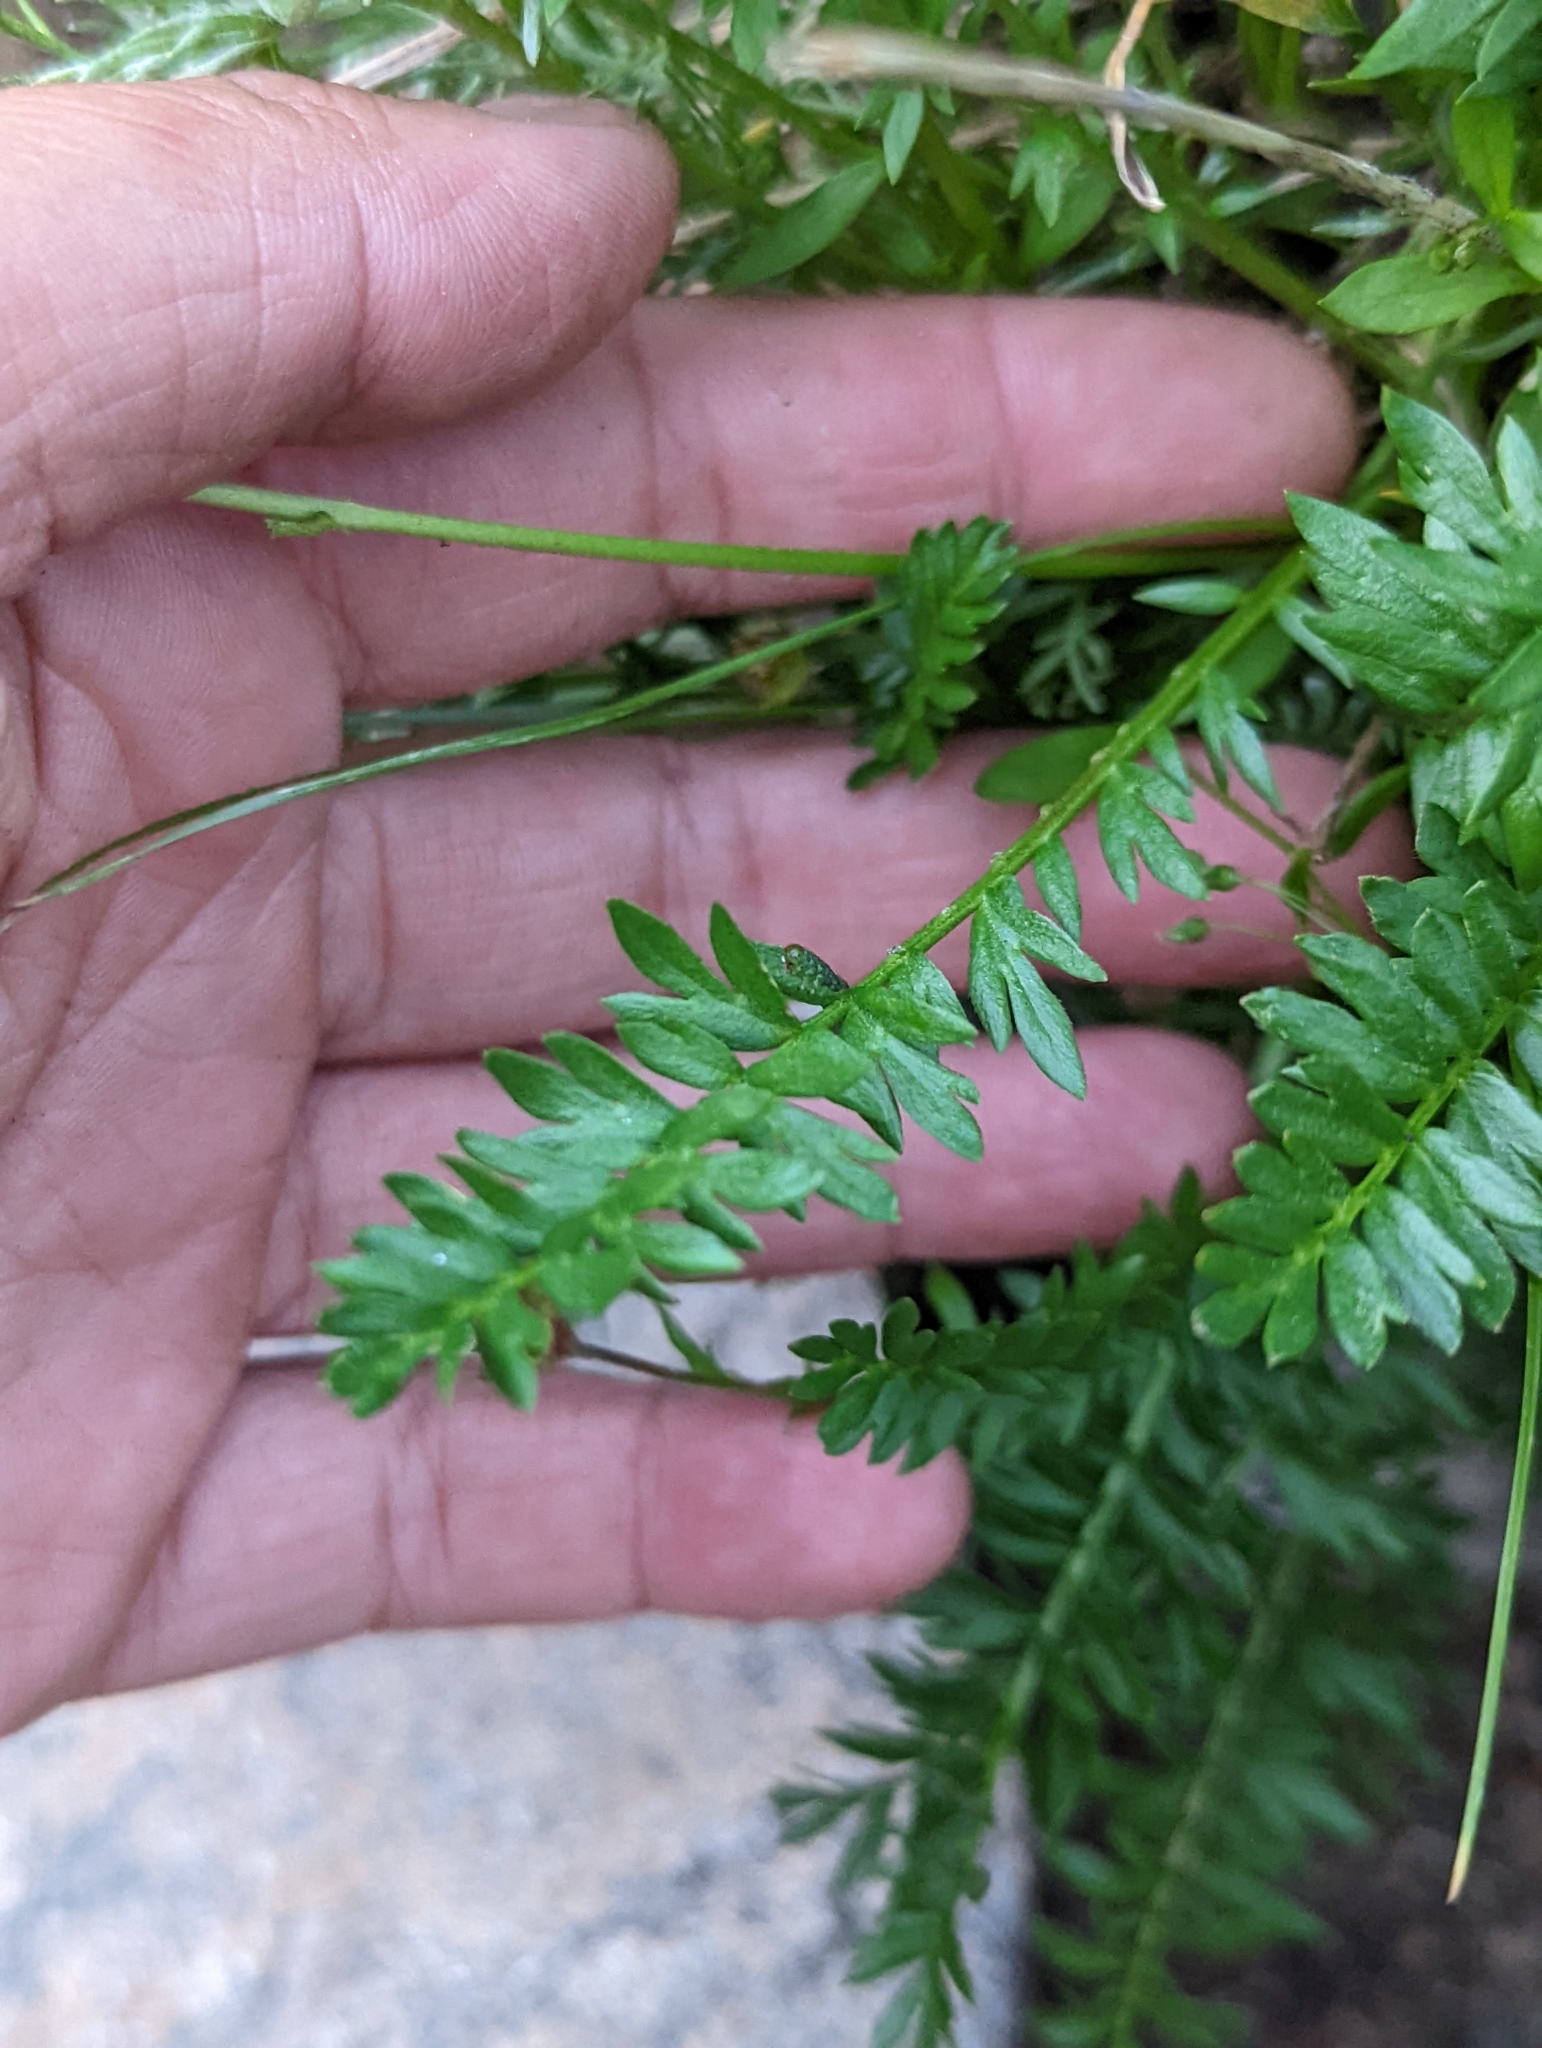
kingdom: Plantae
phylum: Tracheophyta
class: Magnoliopsida
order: Rosales
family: Rosaceae
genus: Geum
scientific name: Geum rossii
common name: Alpine avens
